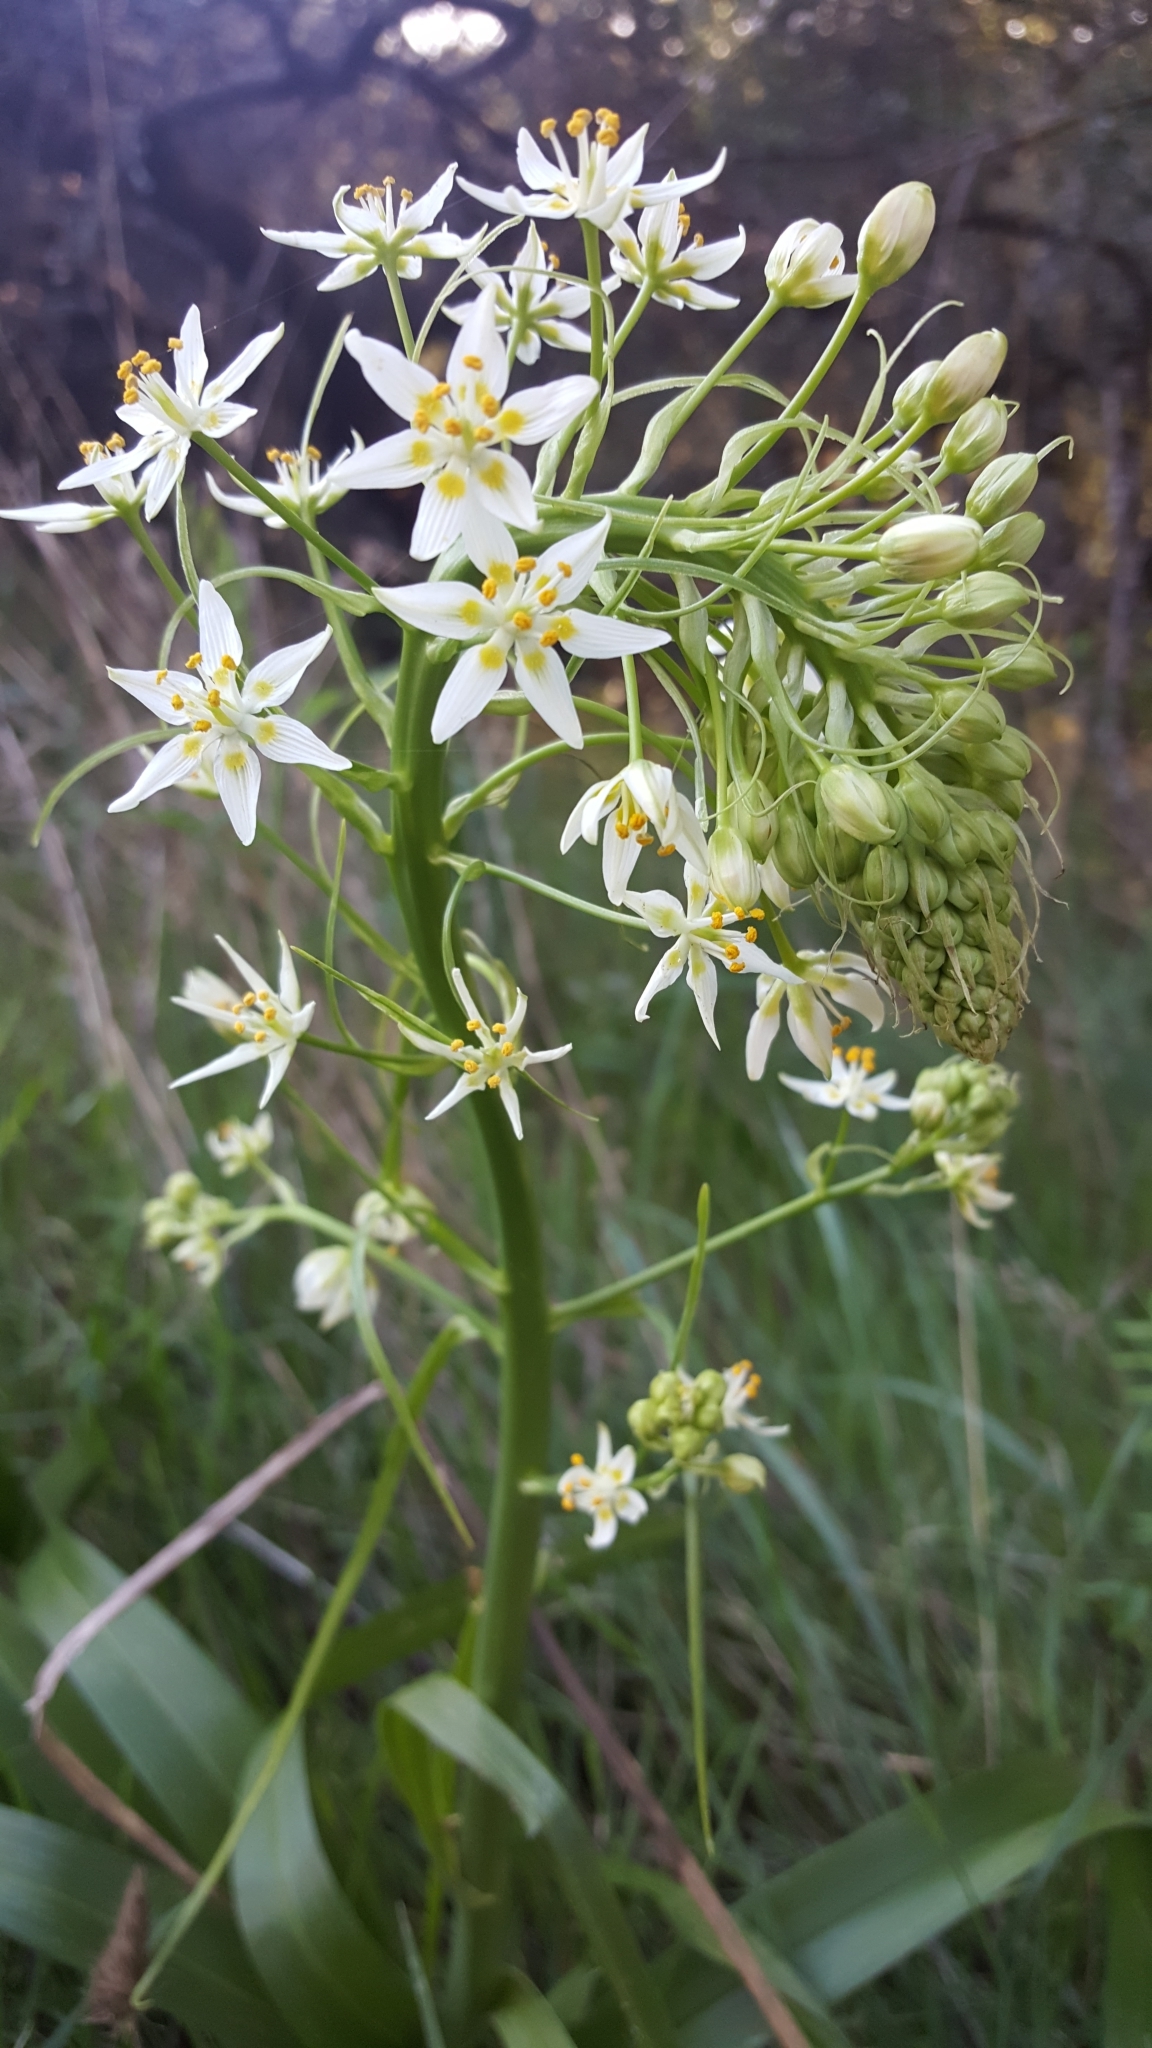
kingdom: Plantae
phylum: Tracheophyta
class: Liliopsida
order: Liliales
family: Melanthiaceae
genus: Toxicoscordion
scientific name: Toxicoscordion fremontii
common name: Fremont's death camas
